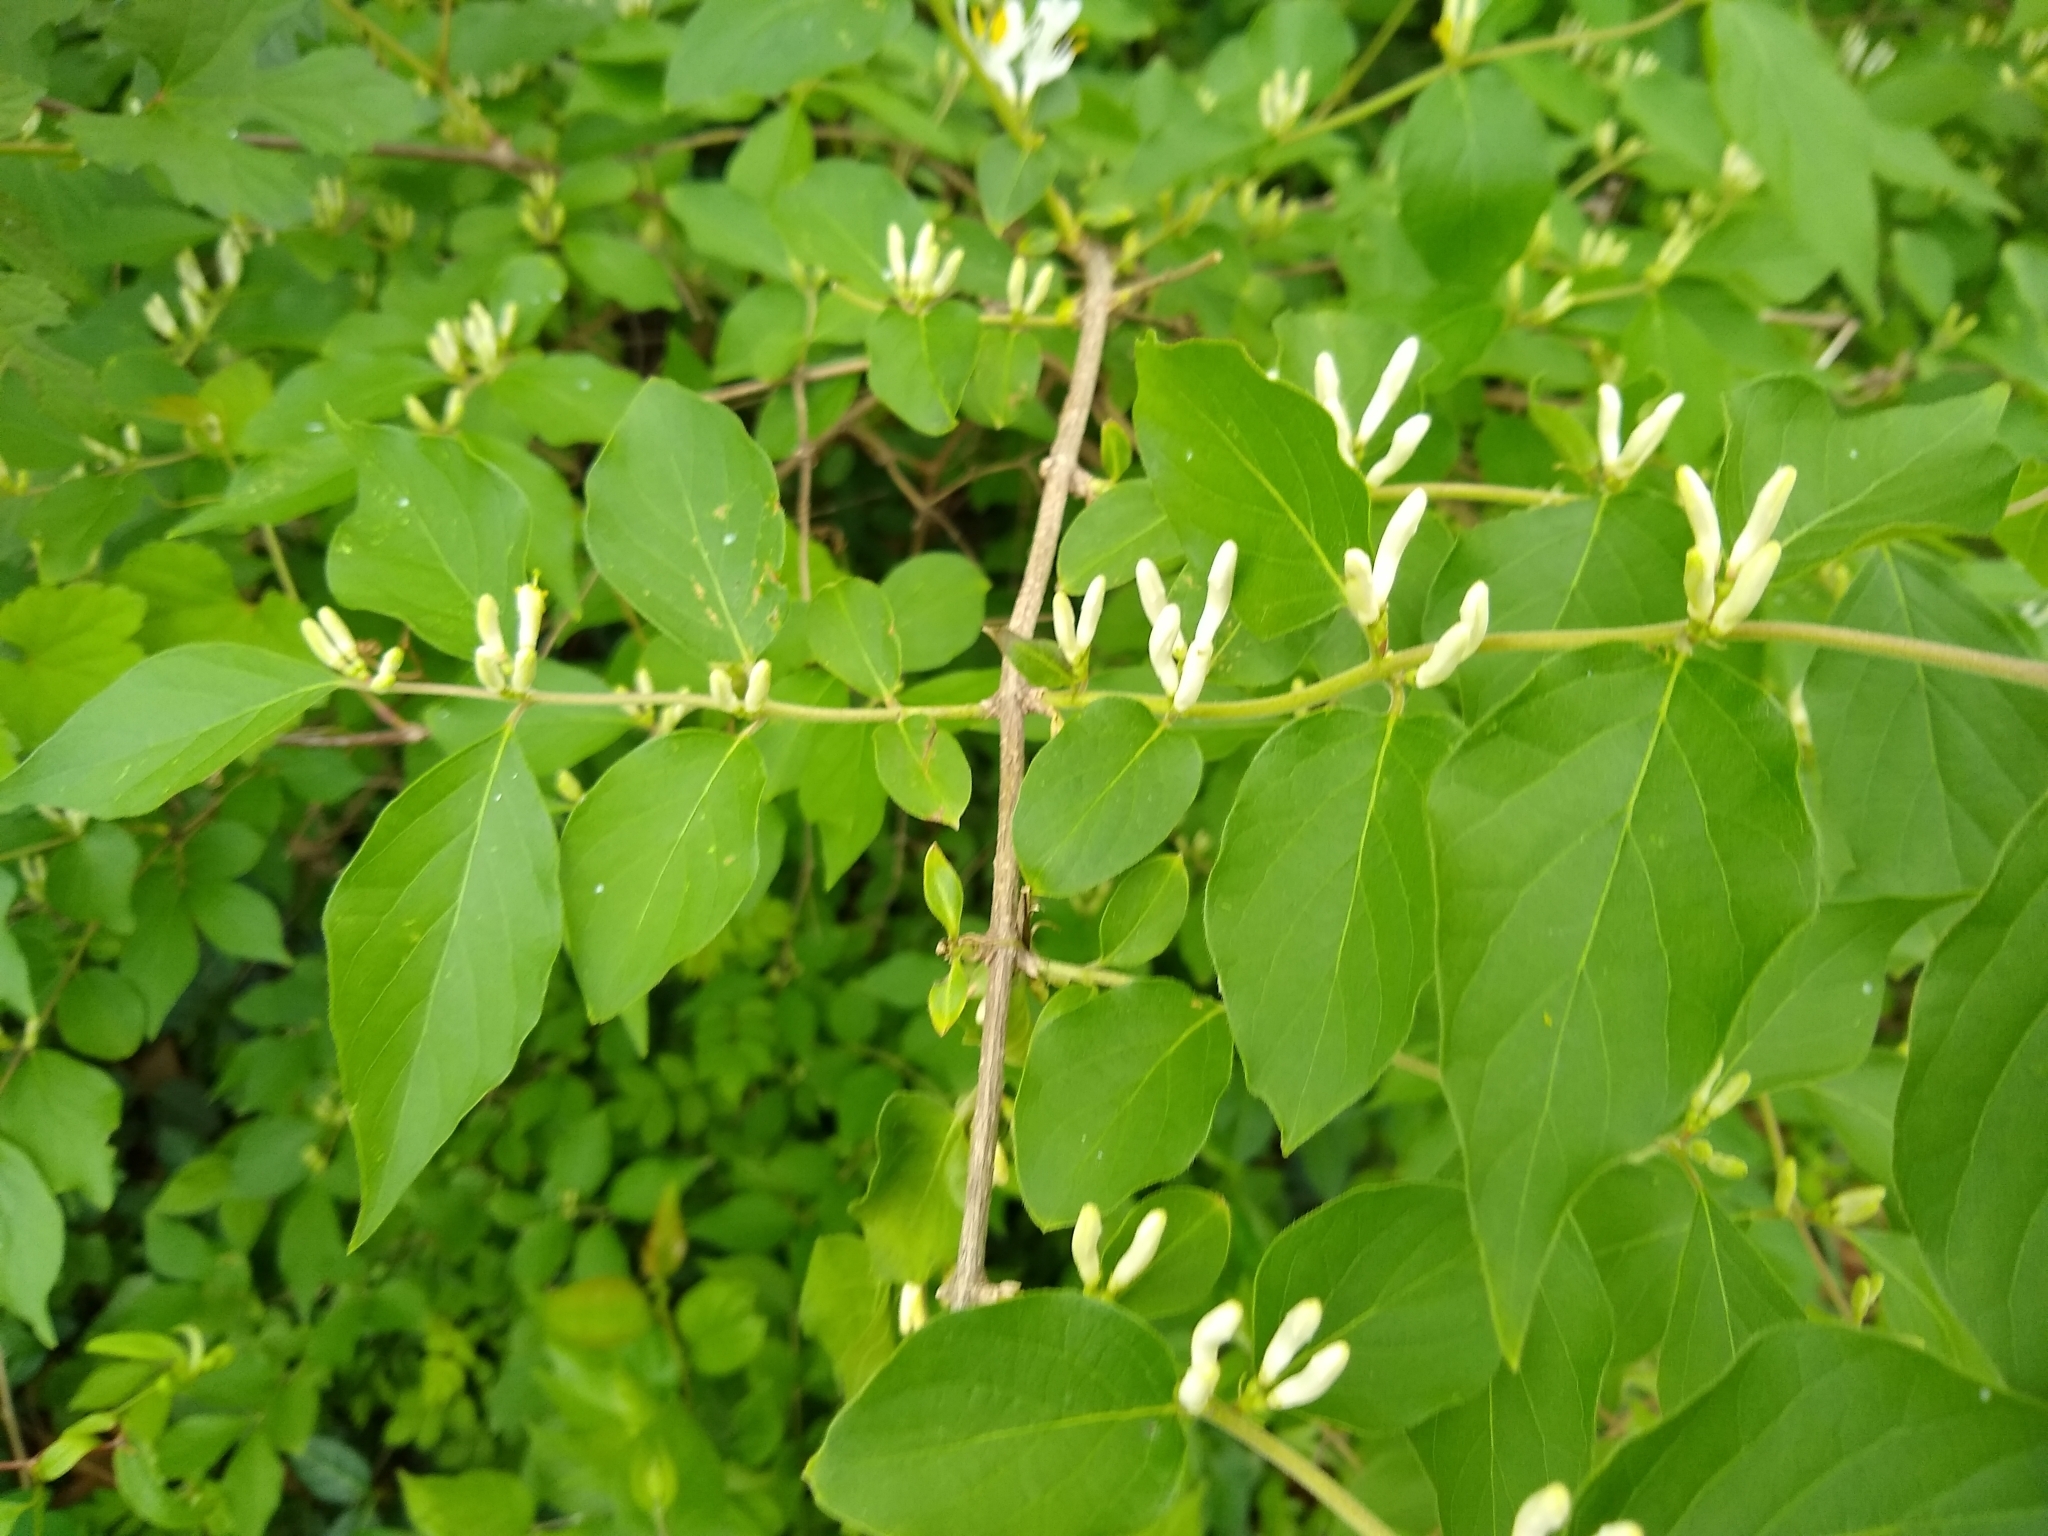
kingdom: Plantae
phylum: Tracheophyta
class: Magnoliopsida
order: Dipsacales
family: Caprifoliaceae
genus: Lonicera
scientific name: Lonicera maackii
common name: Amur honeysuckle
